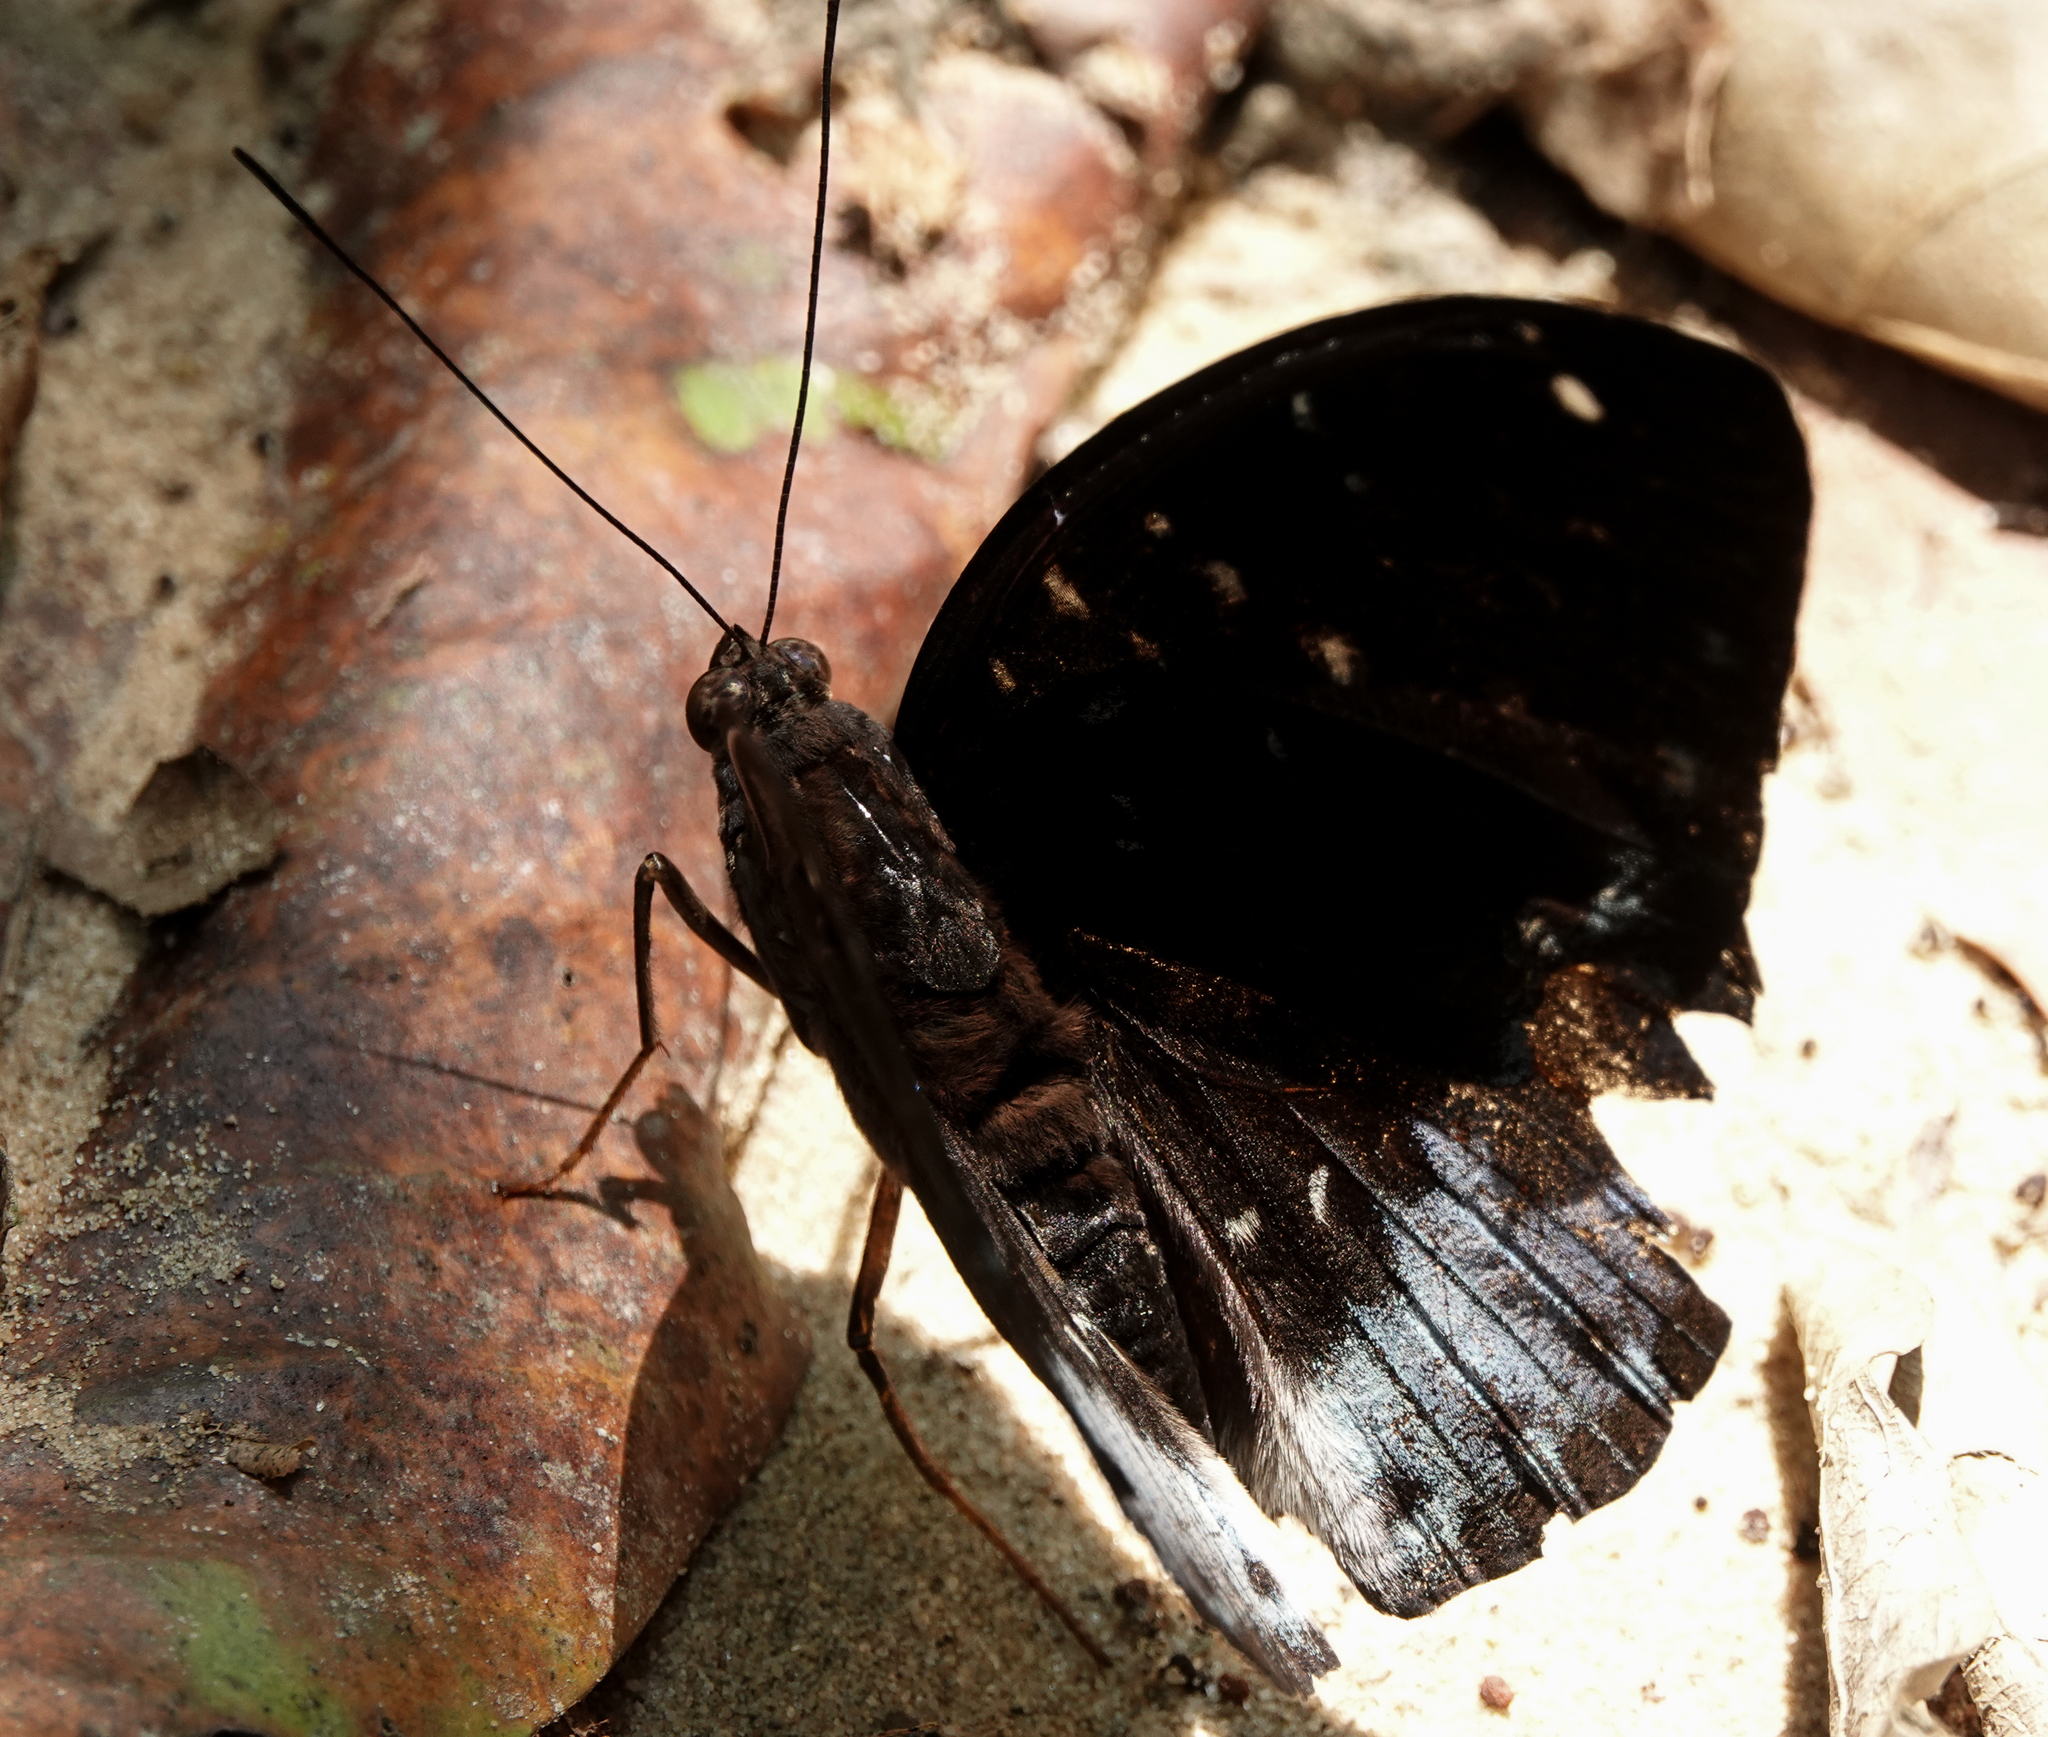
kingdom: Animalia
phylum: Arthropoda
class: Insecta
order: Lepidoptera
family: Nymphalidae
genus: Lexias
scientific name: Lexias dirtea
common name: Black-tipped archduke
